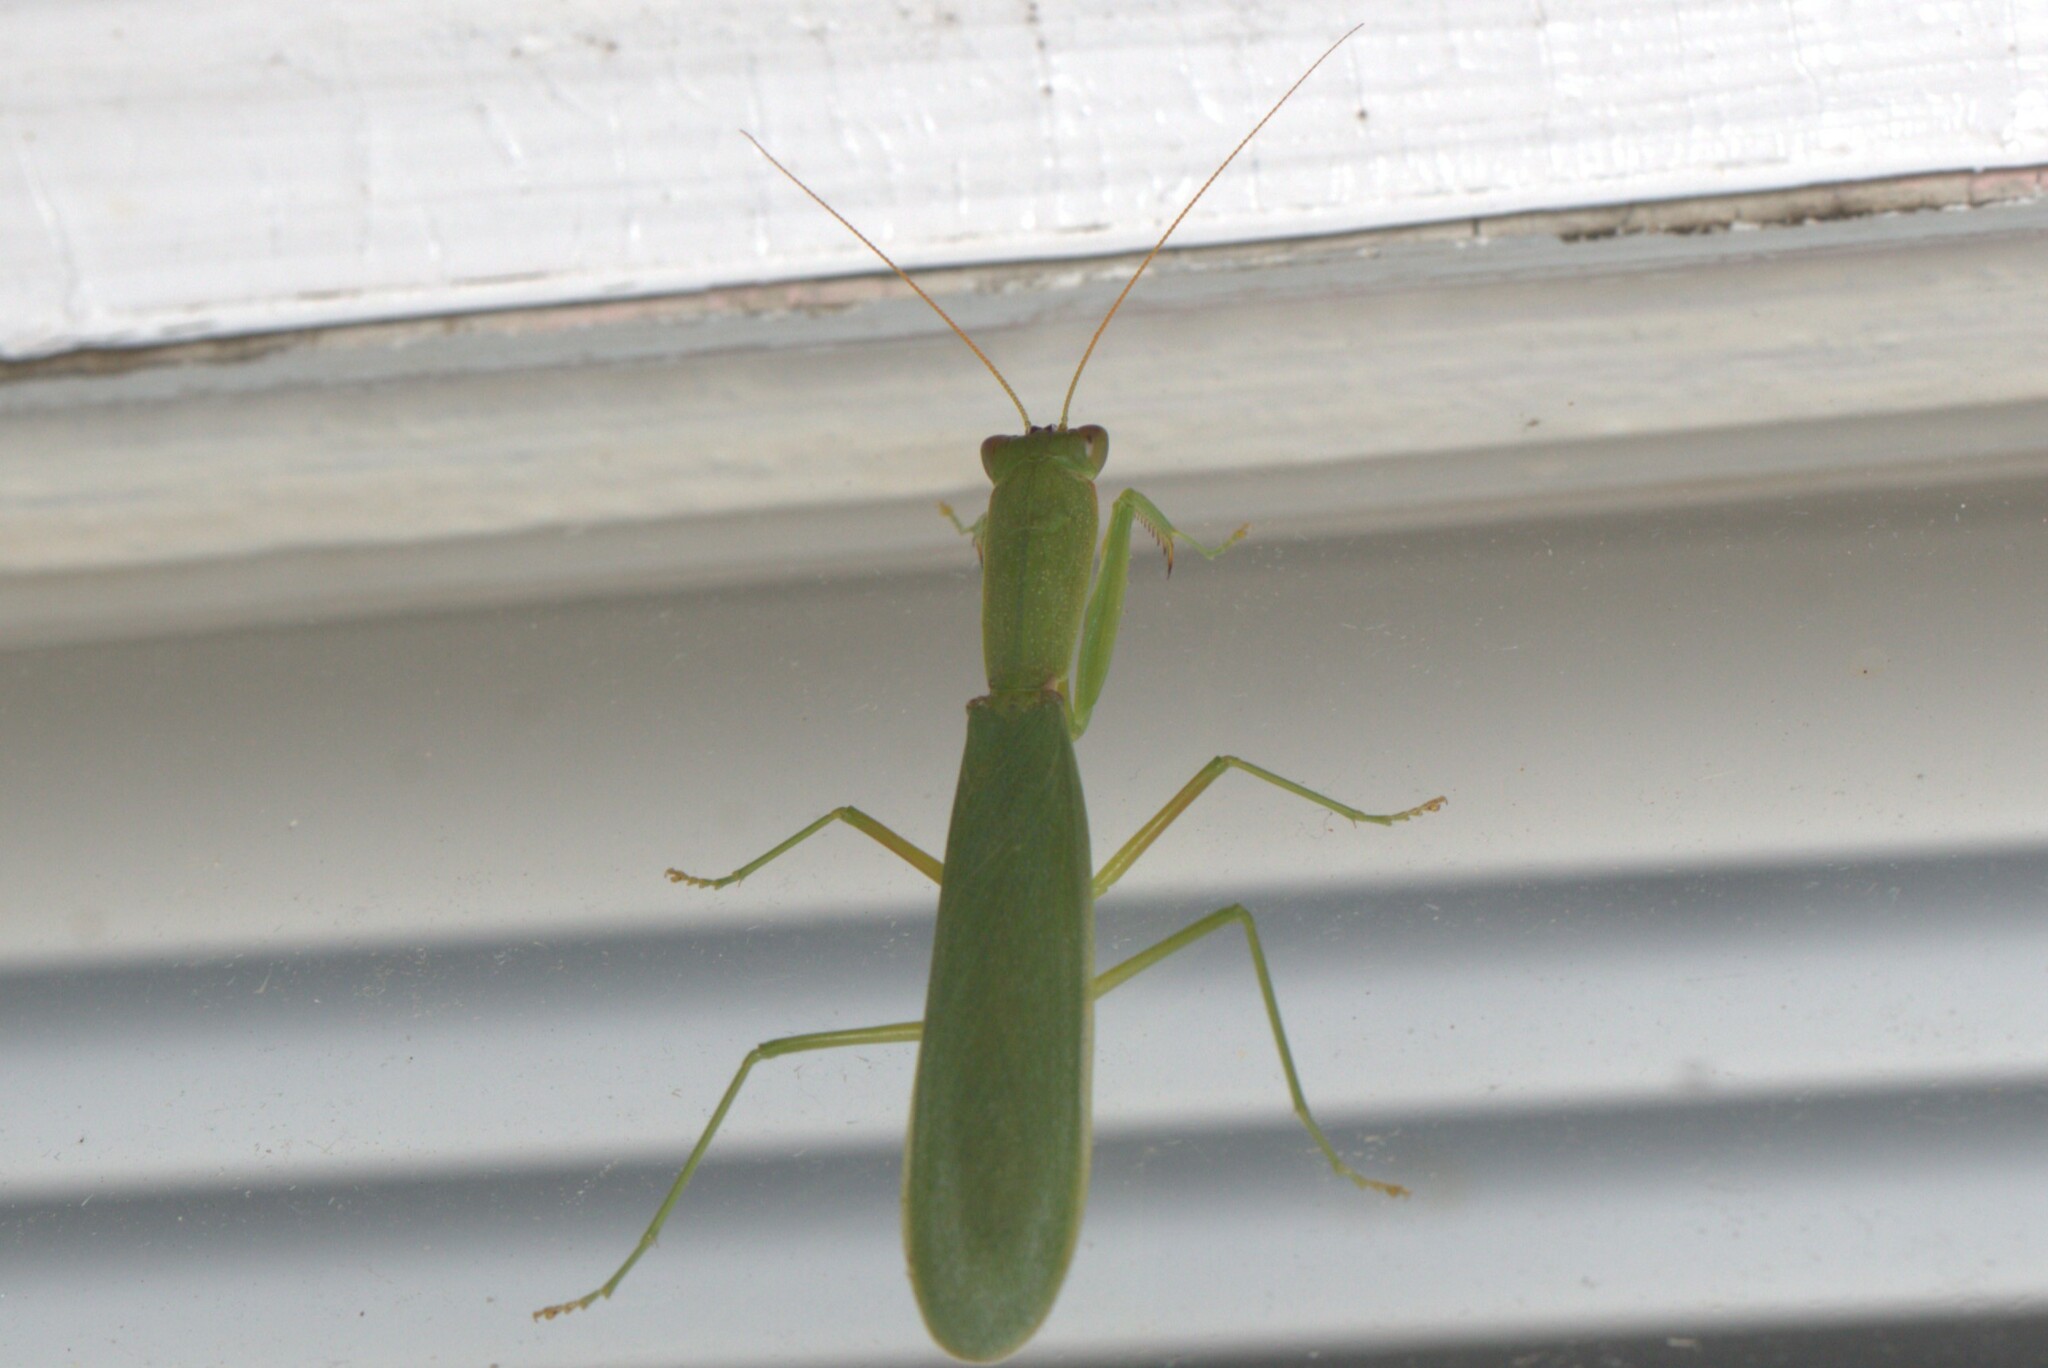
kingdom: Animalia
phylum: Arthropoda
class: Insecta
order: Mantodea
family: Mantidae
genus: Orthodera
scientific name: Orthodera ministralis
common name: Mantis
